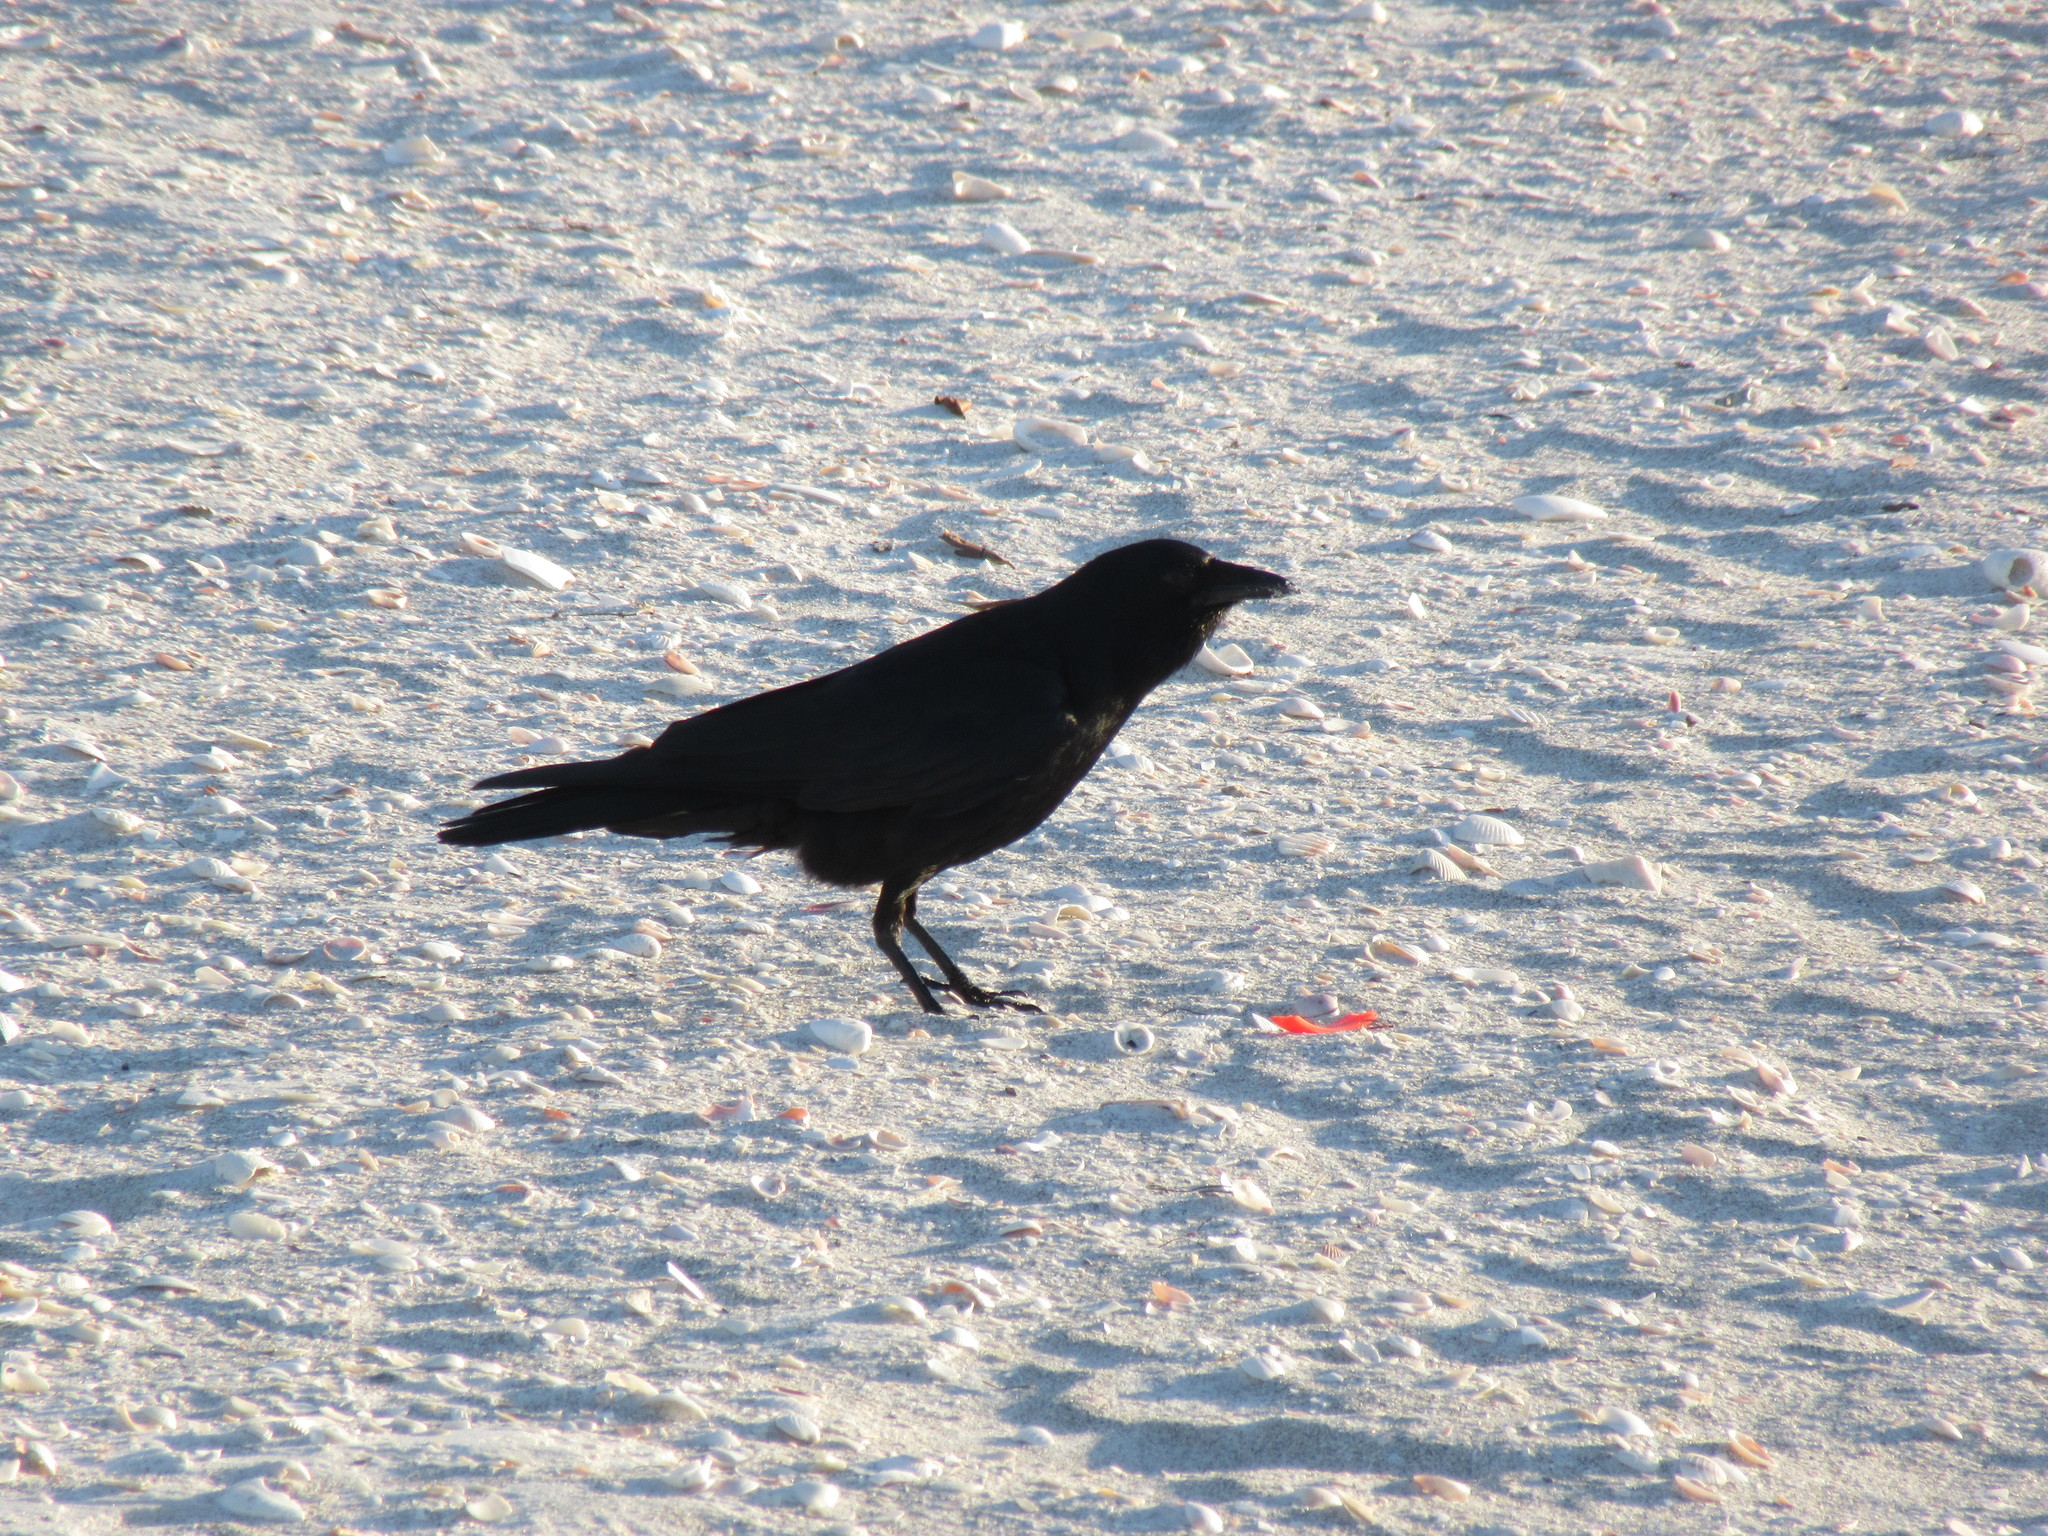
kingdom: Animalia
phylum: Chordata
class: Aves
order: Passeriformes
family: Corvidae
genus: Corvus
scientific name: Corvus
